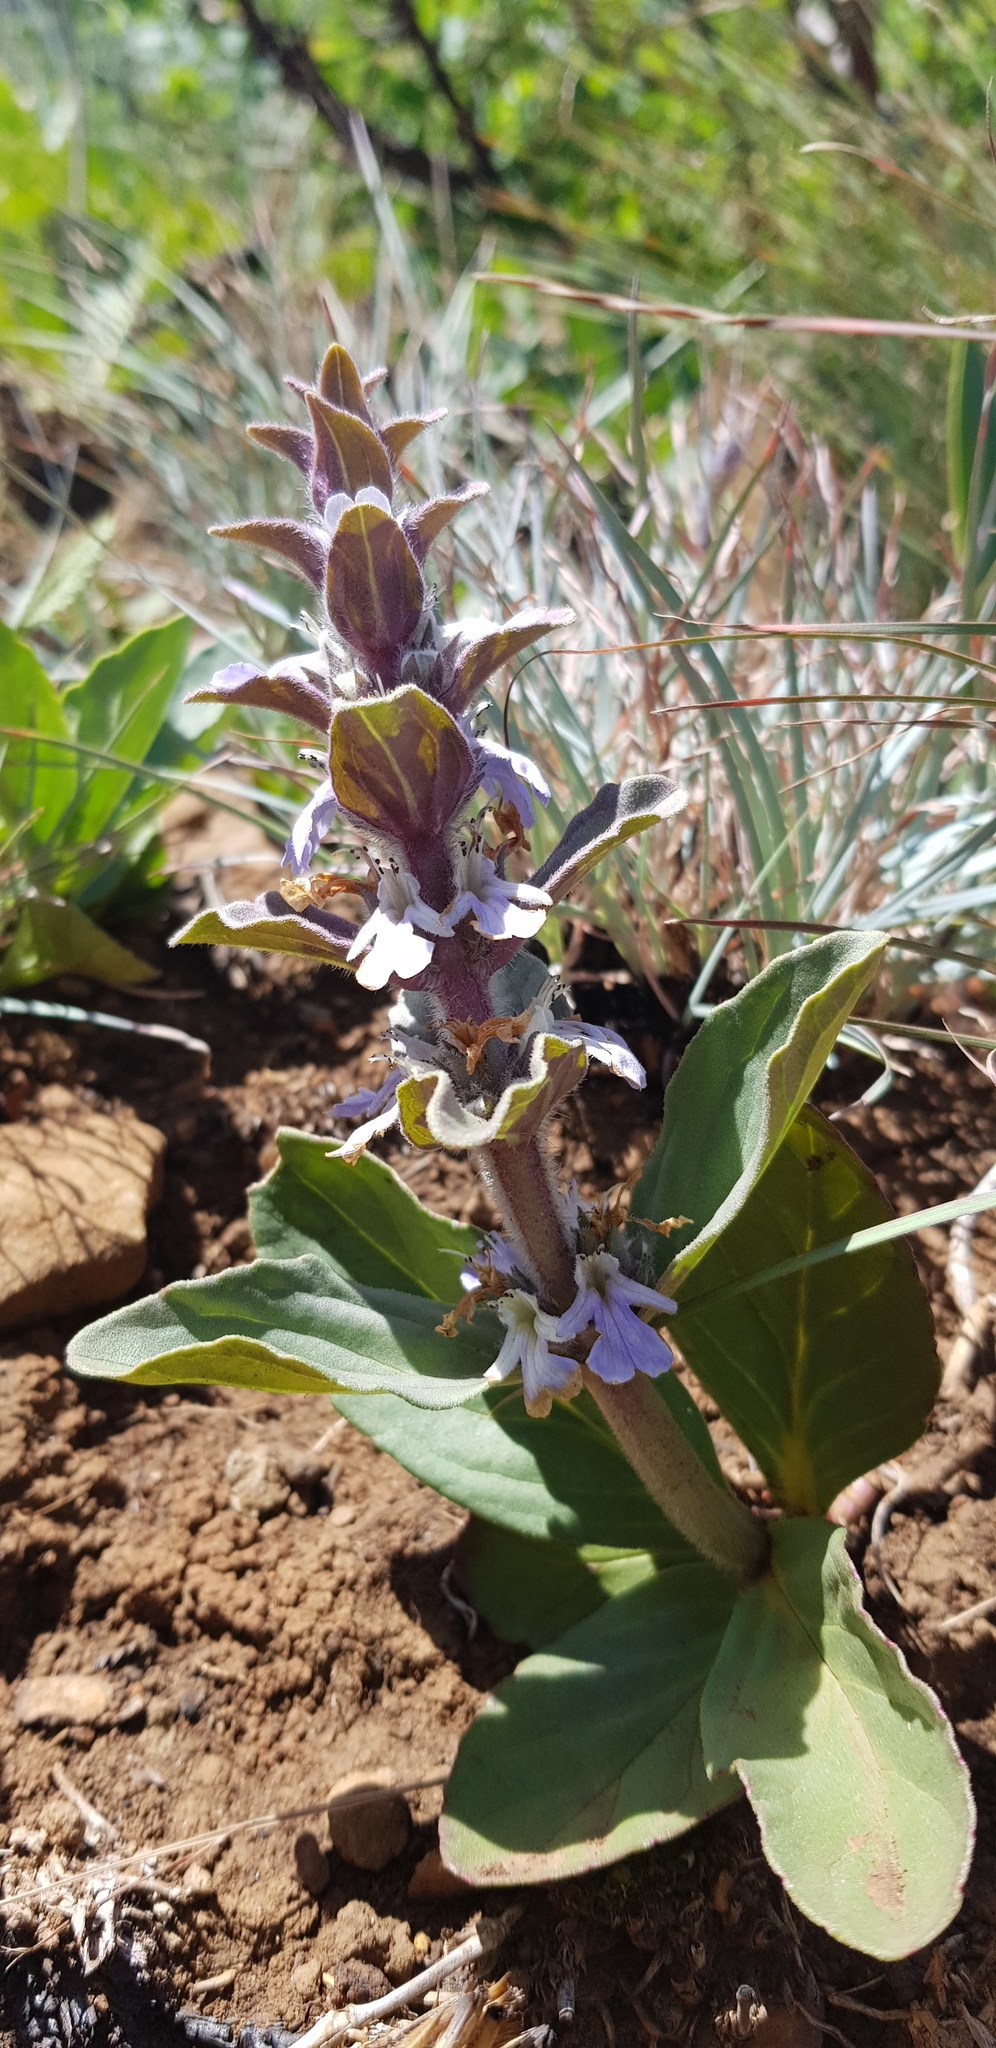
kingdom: Plantae
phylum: Tracheophyta
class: Magnoliopsida
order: Lamiales
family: Lamiaceae
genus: Ajuga
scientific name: Ajuga ophrydis
